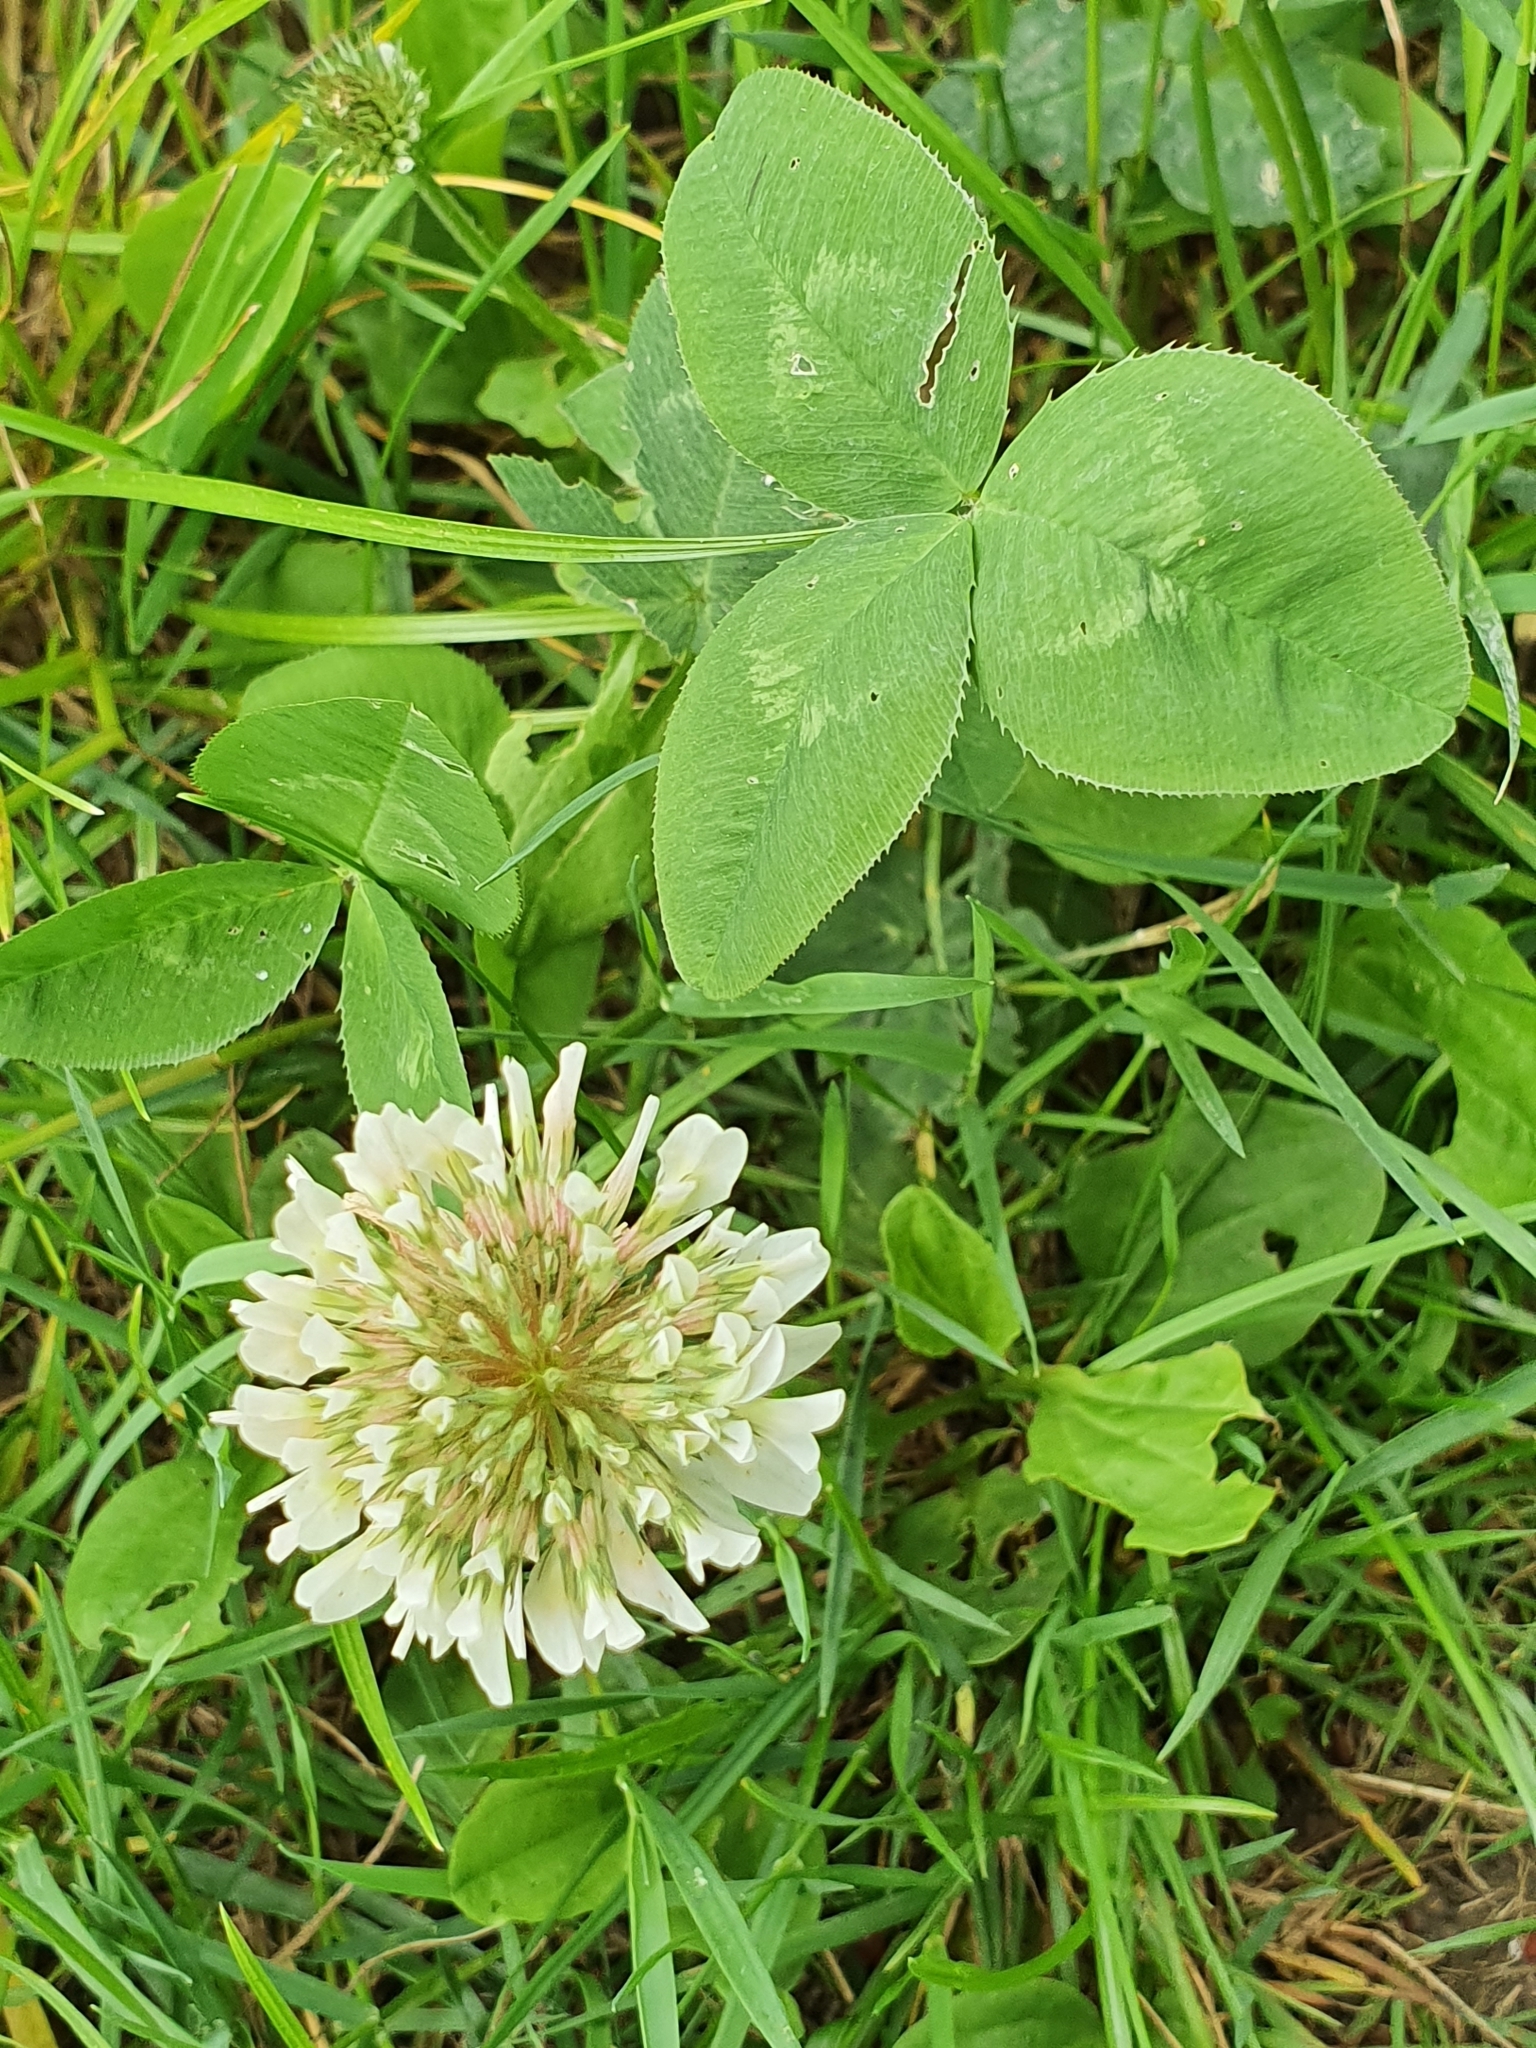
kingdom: Plantae
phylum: Tracheophyta
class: Magnoliopsida
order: Fabales
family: Fabaceae
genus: Trifolium
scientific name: Trifolium repens
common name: White clover
